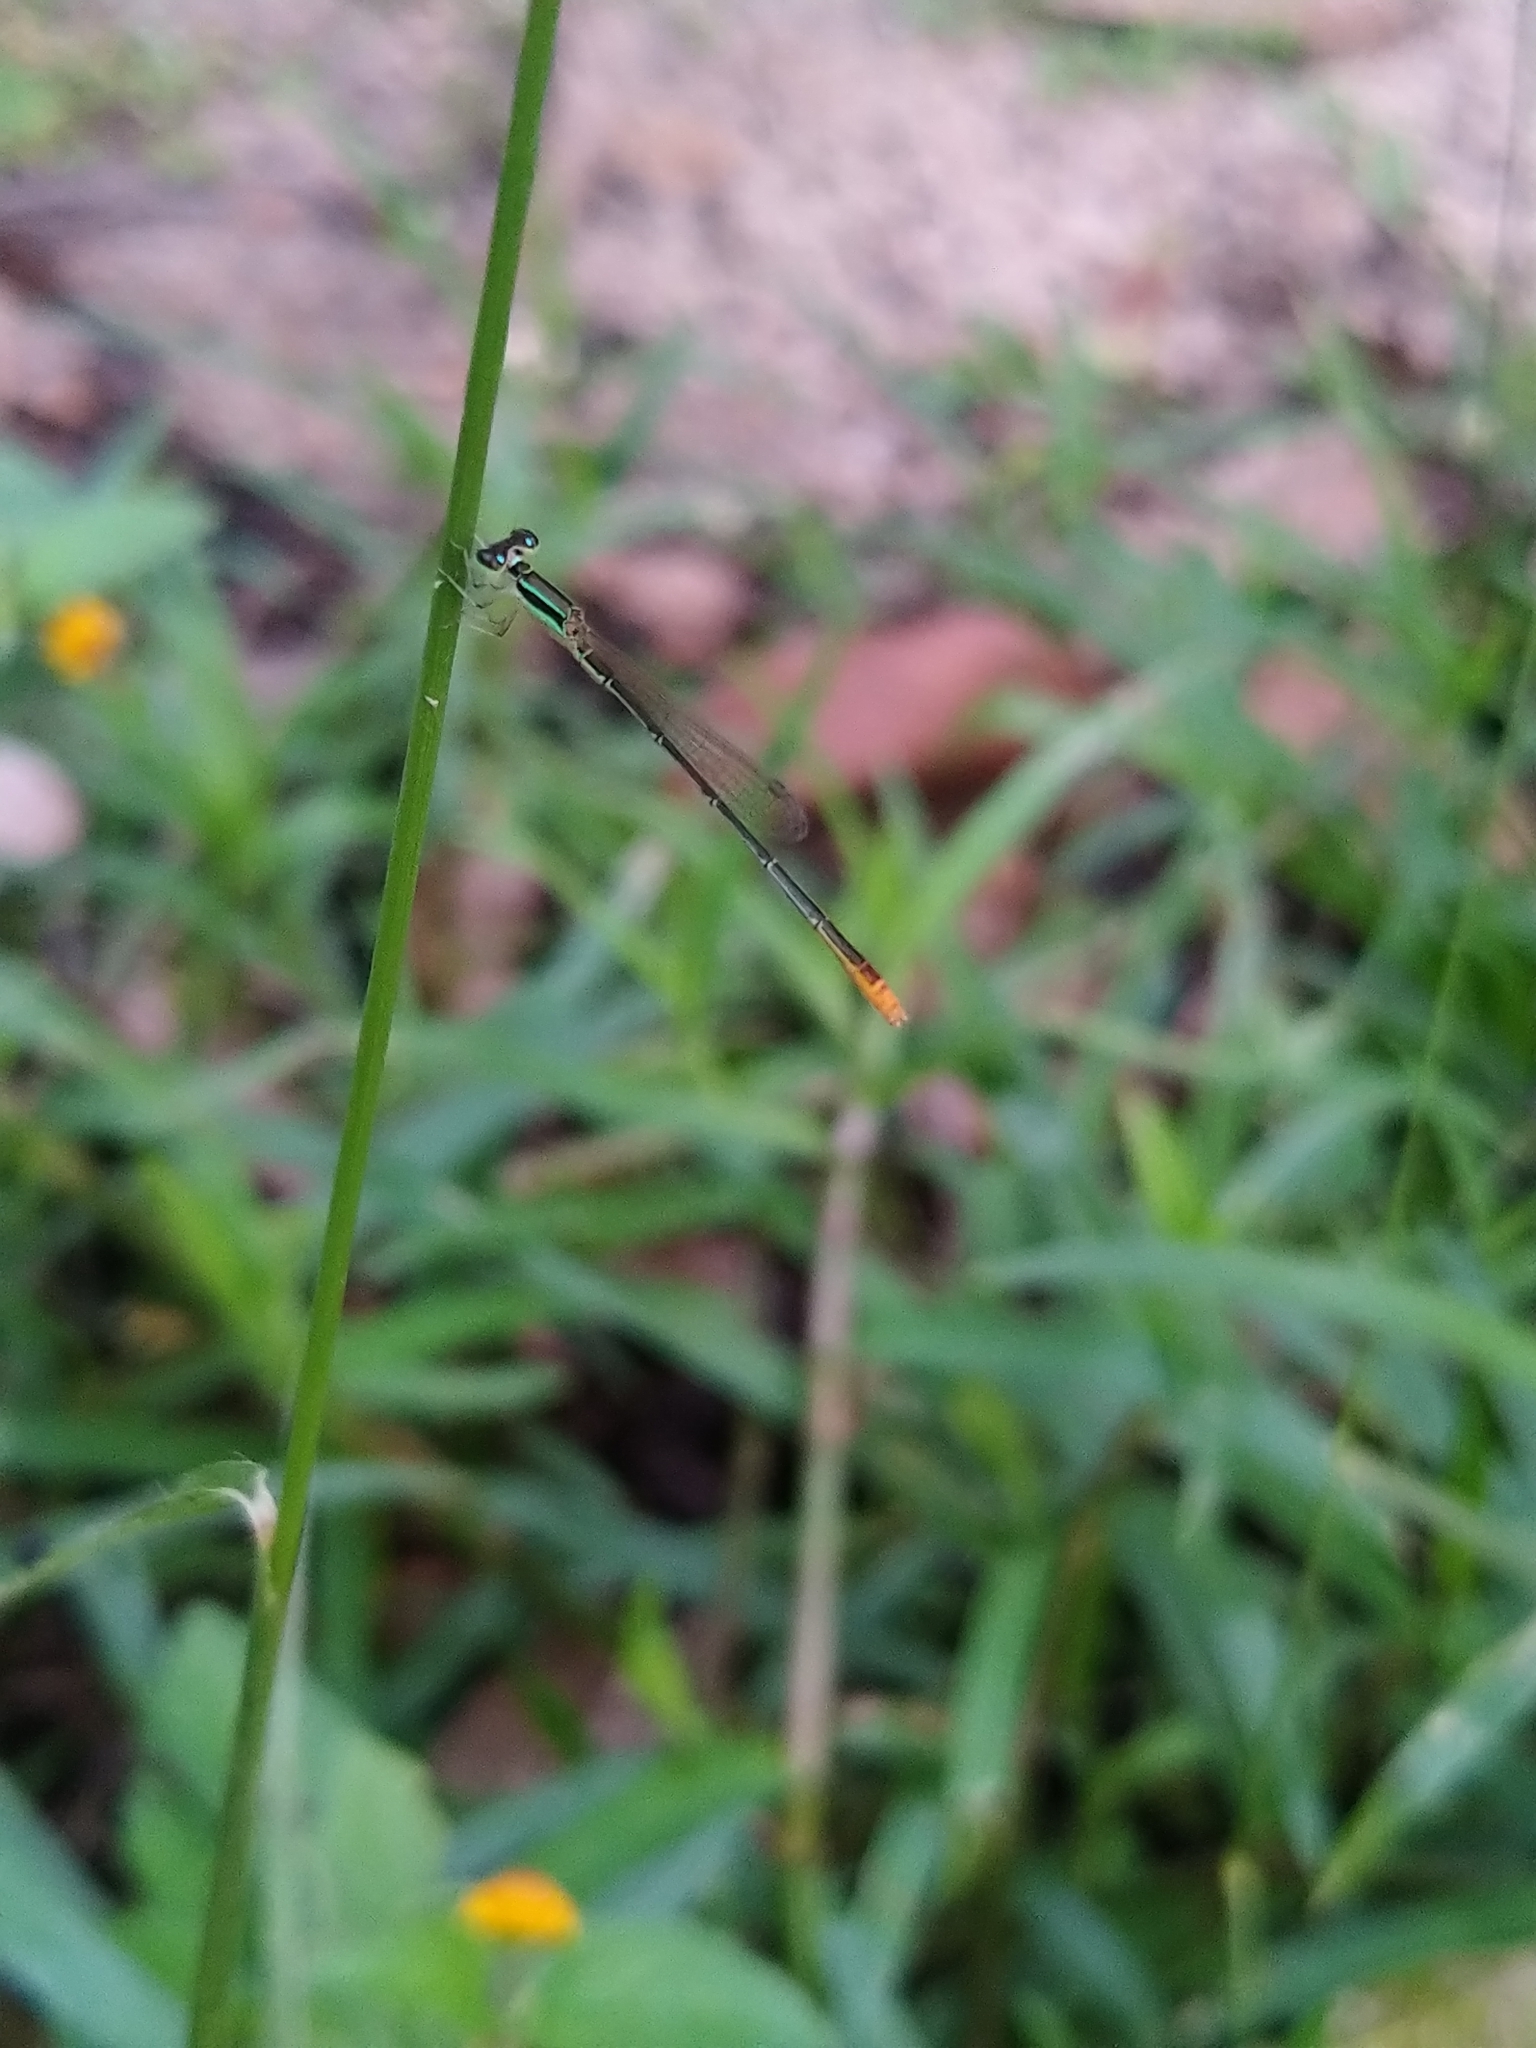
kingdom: Animalia
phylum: Arthropoda
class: Insecta
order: Odonata
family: Coenagrionidae
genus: Agriocnemis
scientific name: Agriocnemis pygmaea
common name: Pygmy wisp
